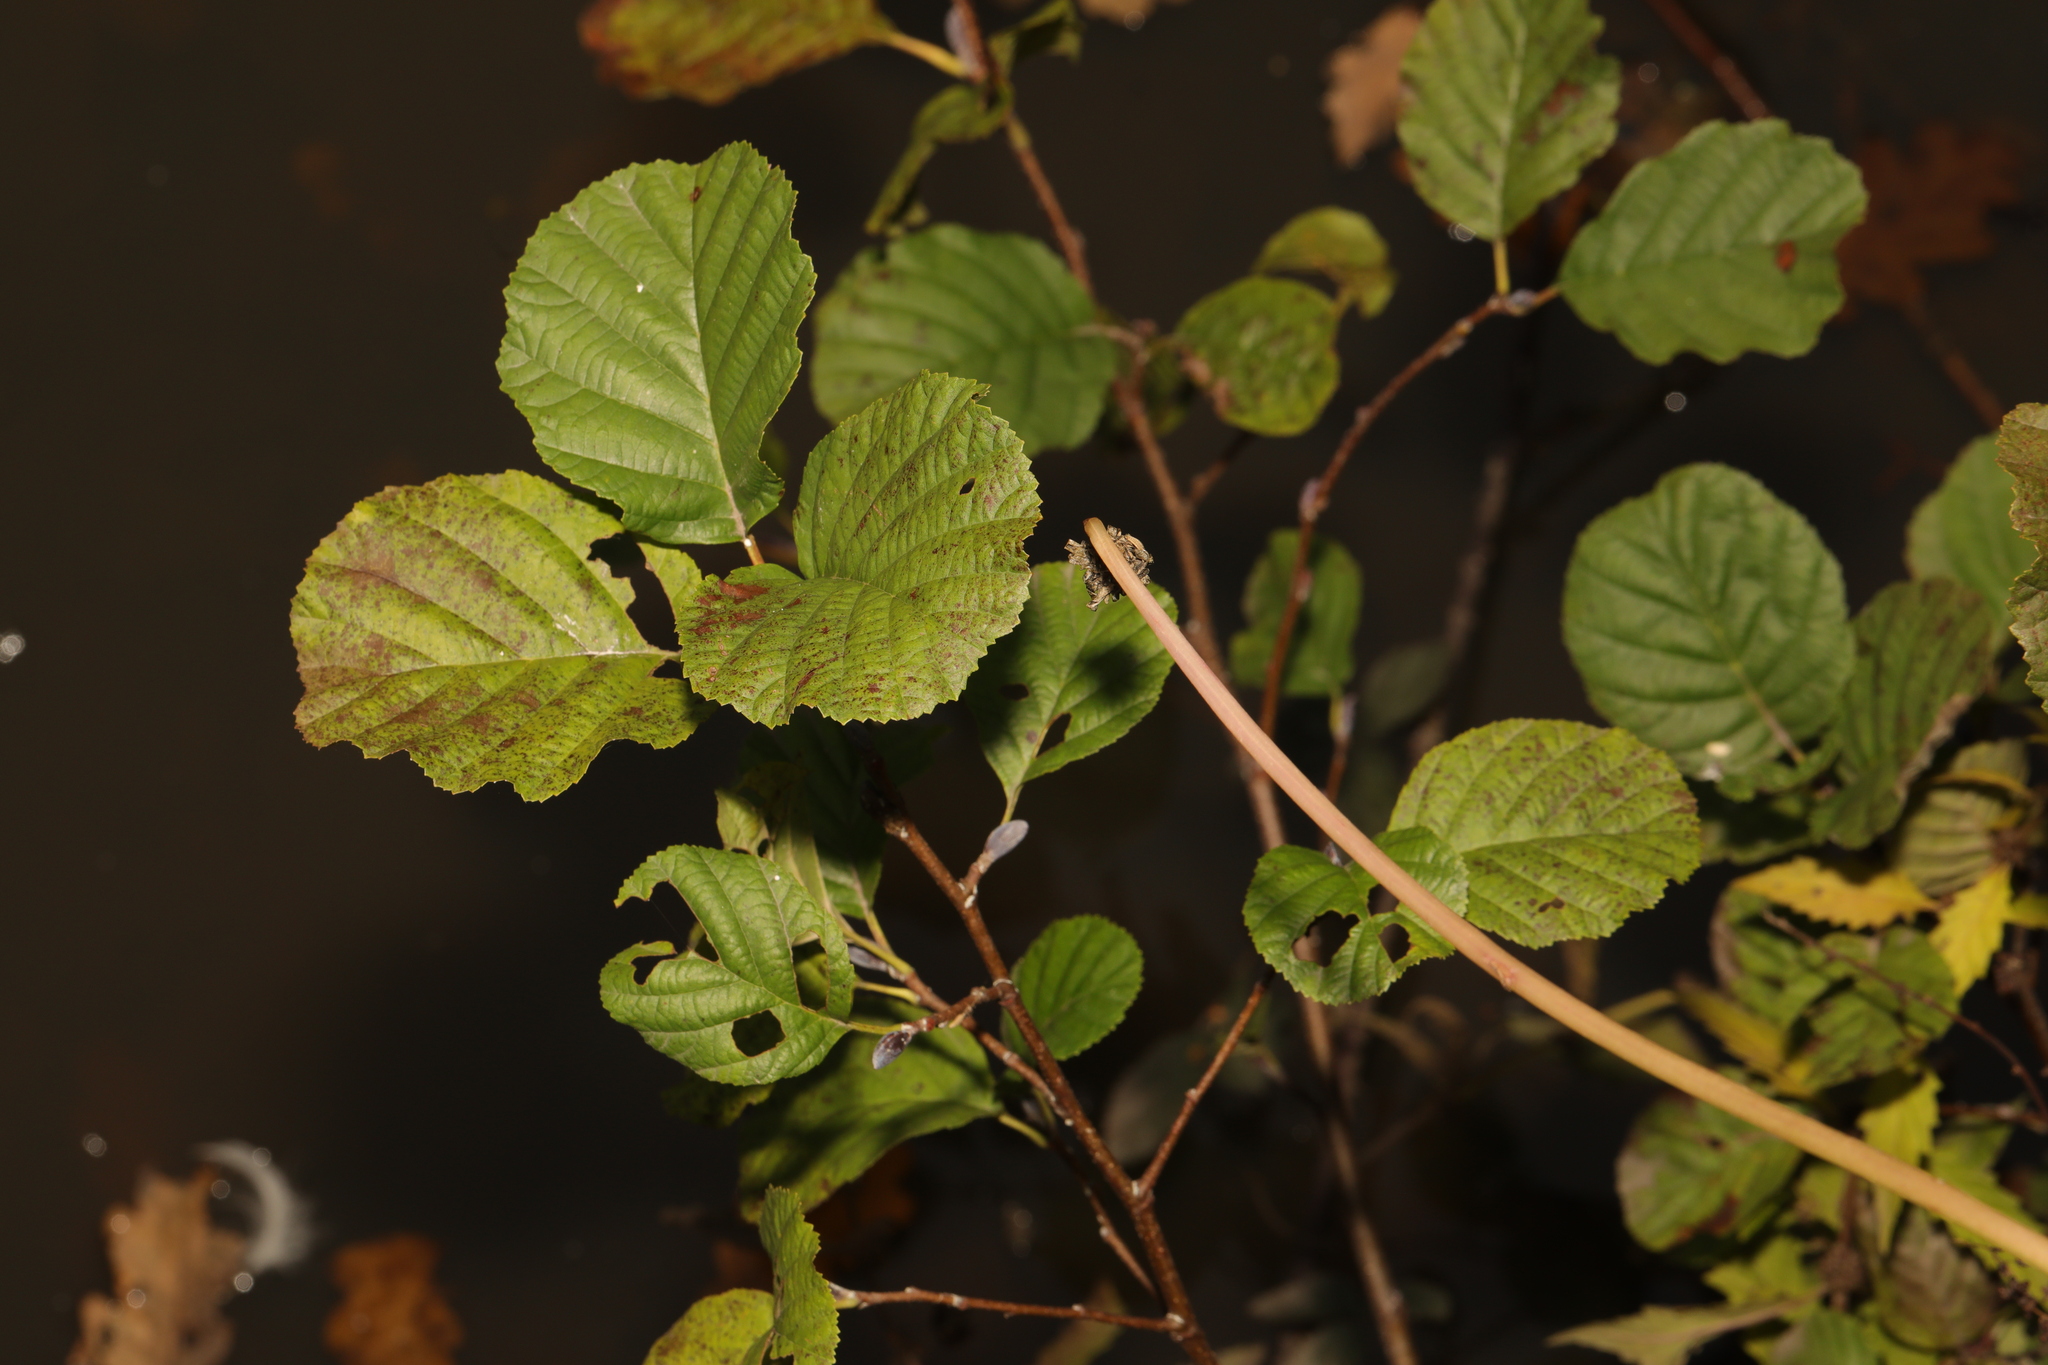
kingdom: Plantae
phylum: Tracheophyta
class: Magnoliopsida
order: Fagales
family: Betulaceae
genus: Alnus
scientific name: Alnus glutinosa
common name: Black alder
